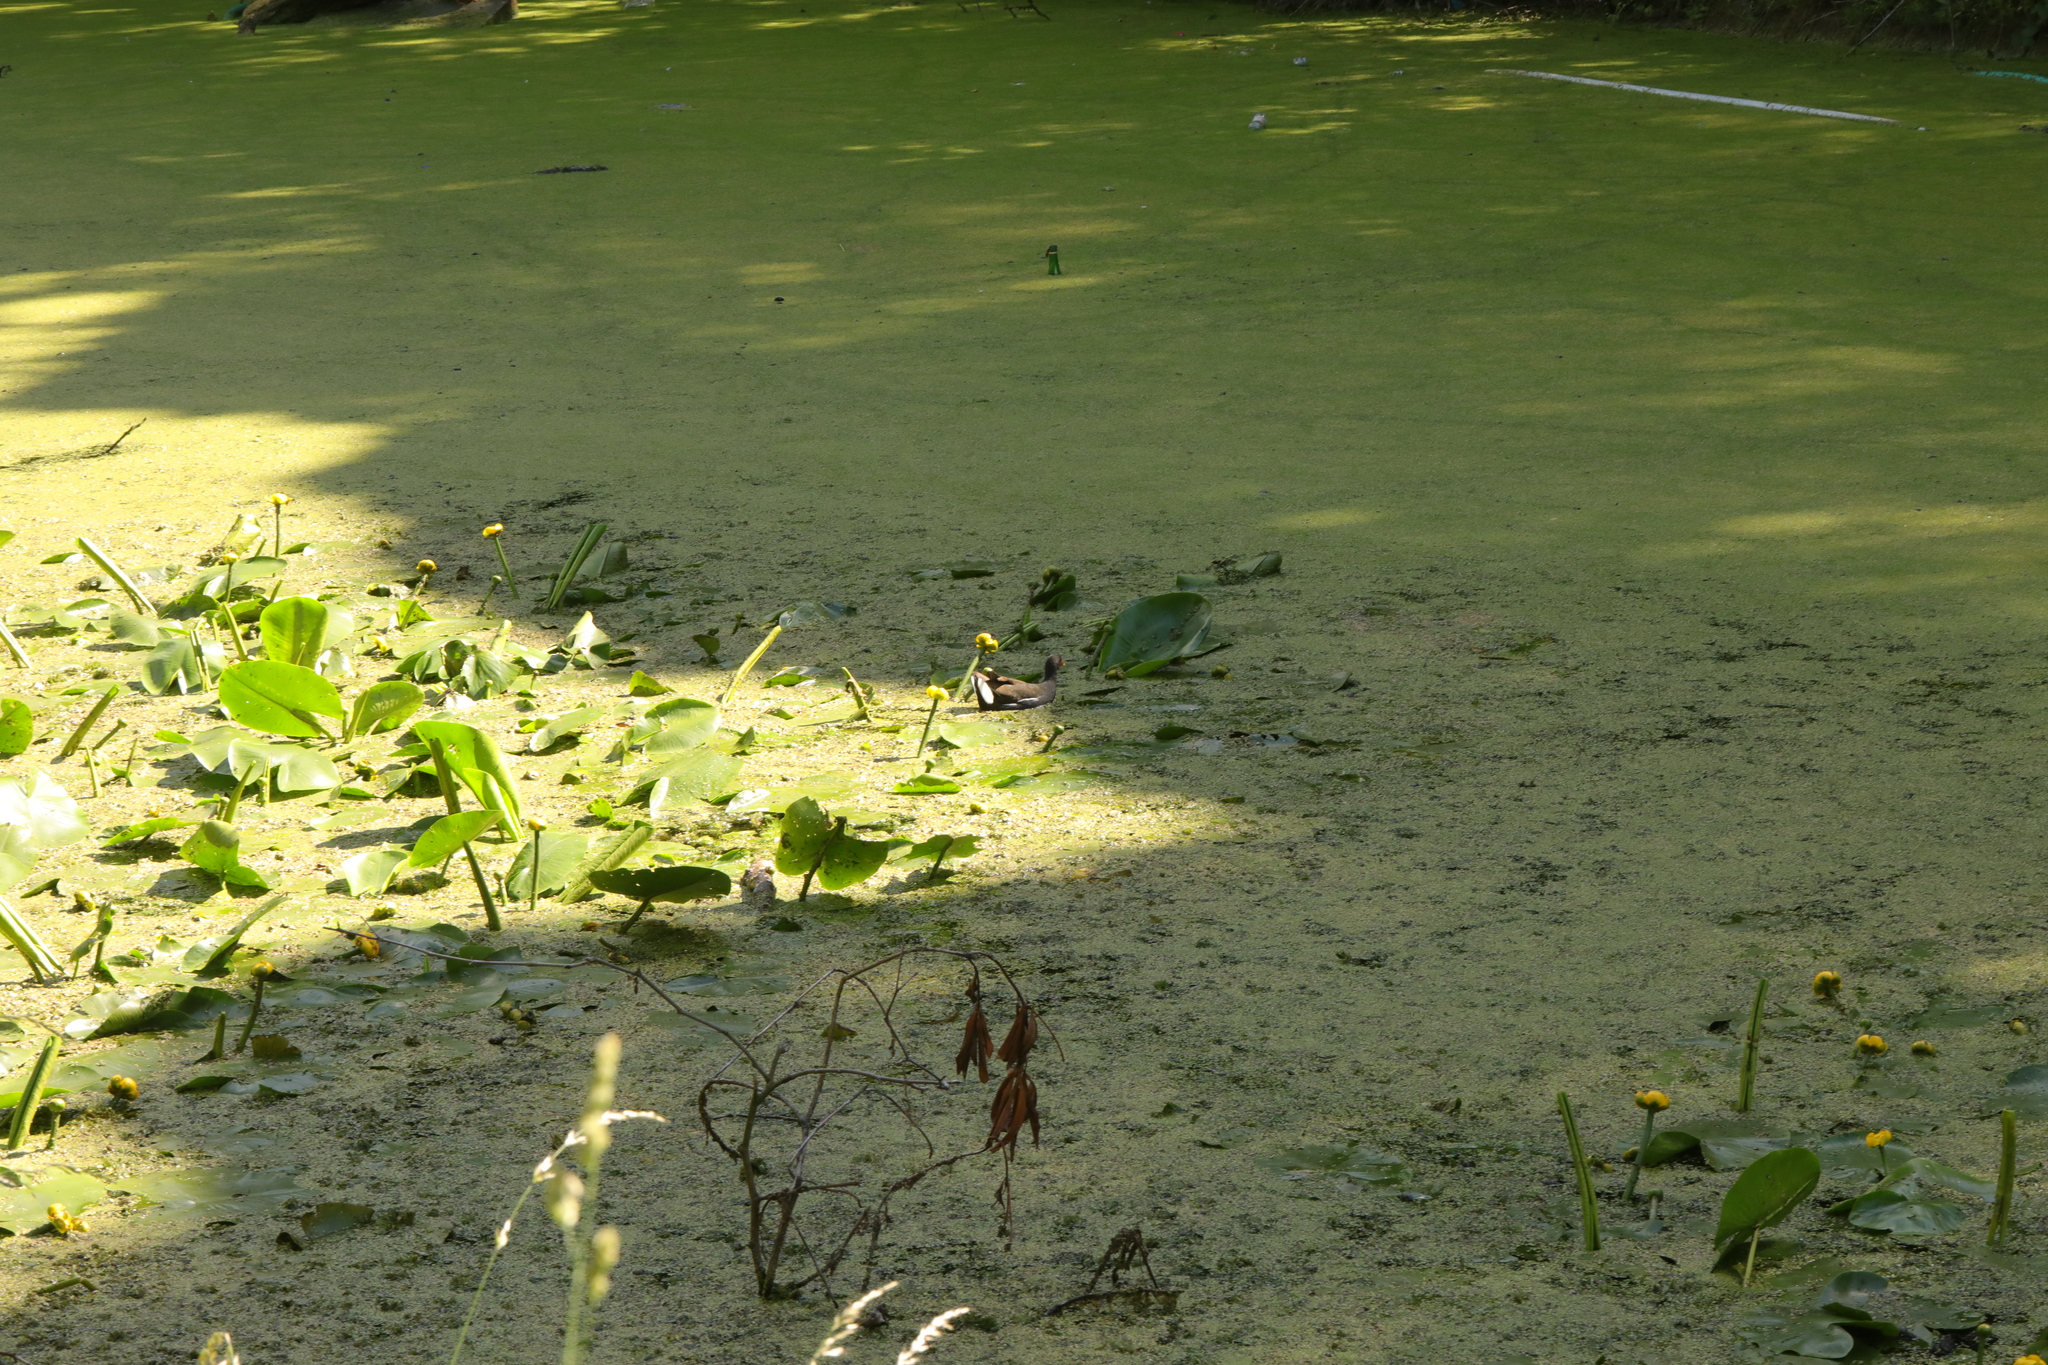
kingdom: Plantae
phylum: Tracheophyta
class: Magnoliopsida
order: Nymphaeales
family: Nymphaeaceae
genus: Nuphar
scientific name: Nuphar lutea
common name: Yellow water-lily
